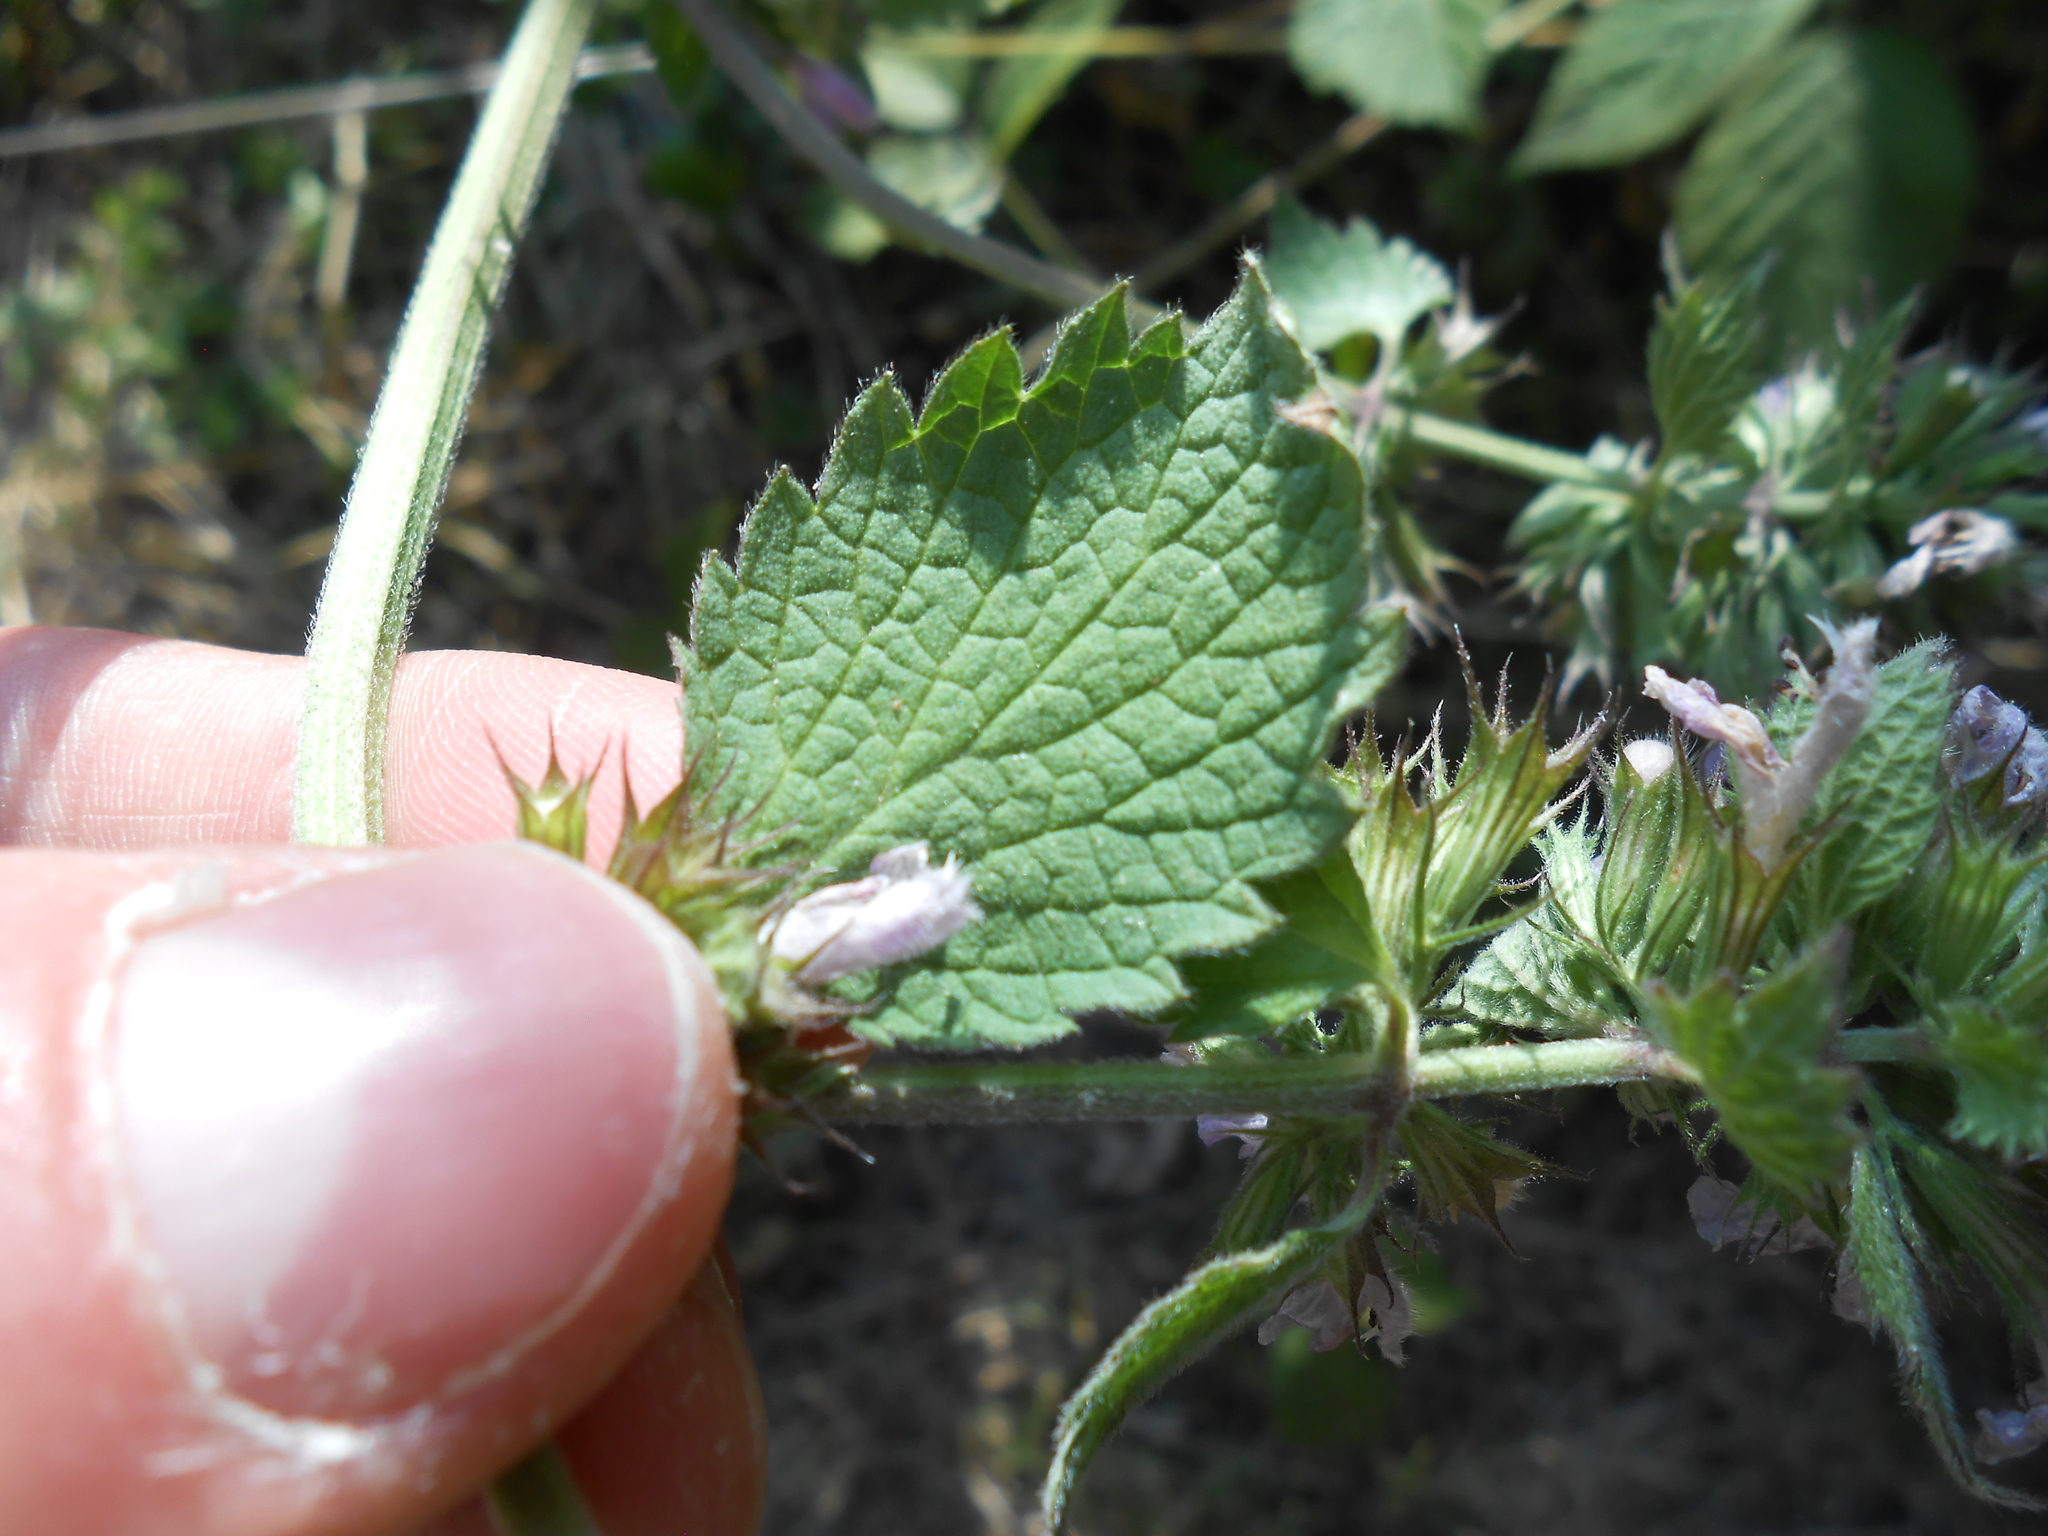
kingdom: Plantae
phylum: Tracheophyta
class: Magnoliopsida
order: Lamiales
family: Lamiaceae
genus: Ballota
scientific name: Ballota nigra
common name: Black horehound
